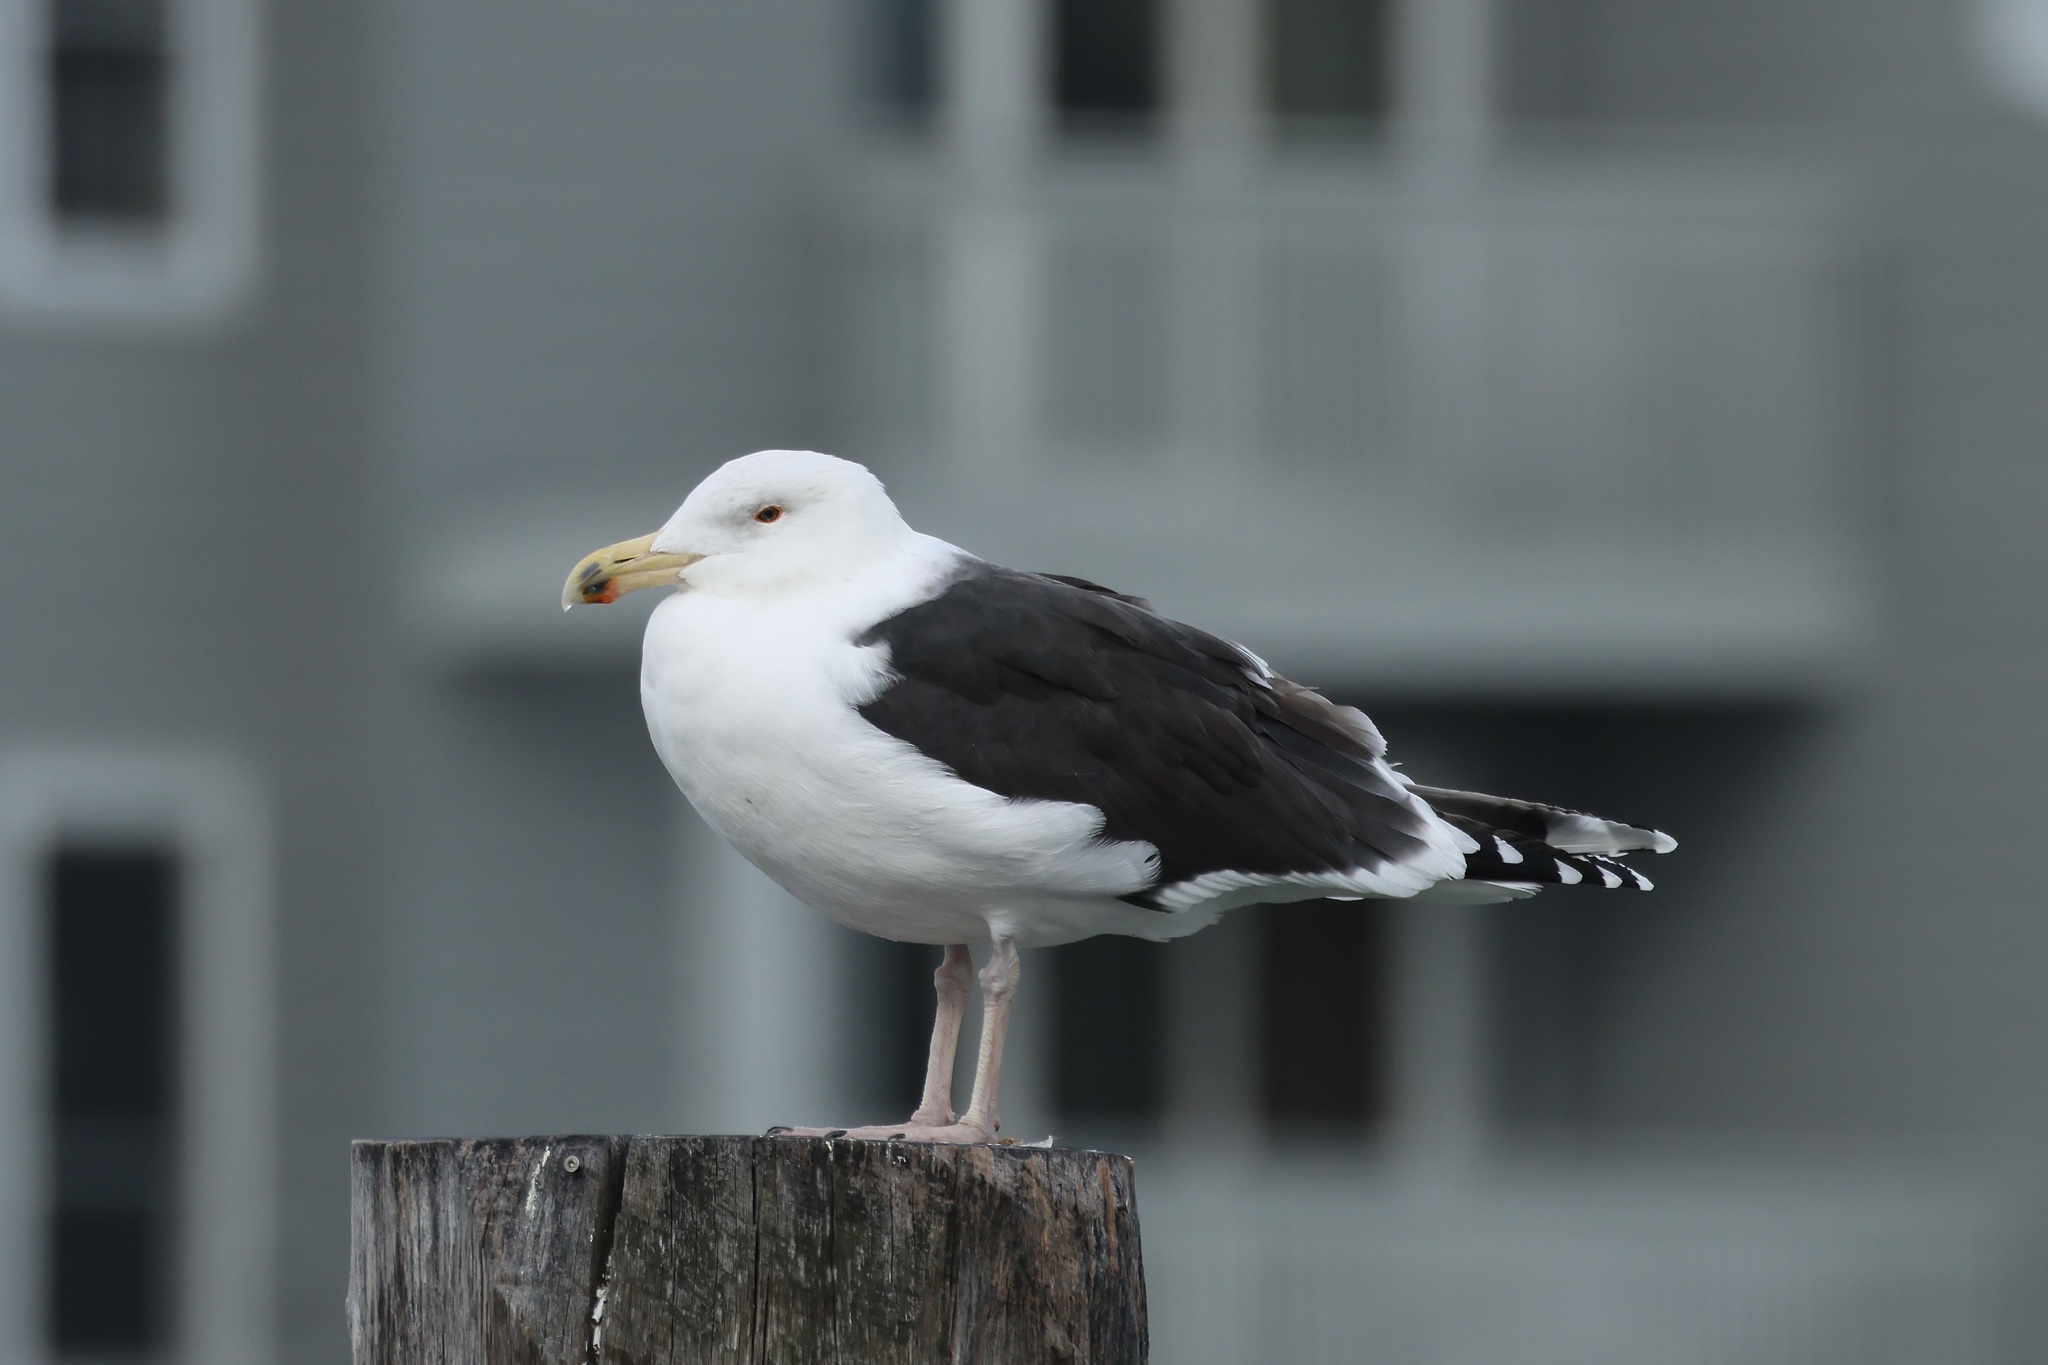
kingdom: Animalia
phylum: Chordata
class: Aves
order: Charadriiformes
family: Laridae
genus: Larus
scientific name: Larus marinus
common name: Great black-backed gull
